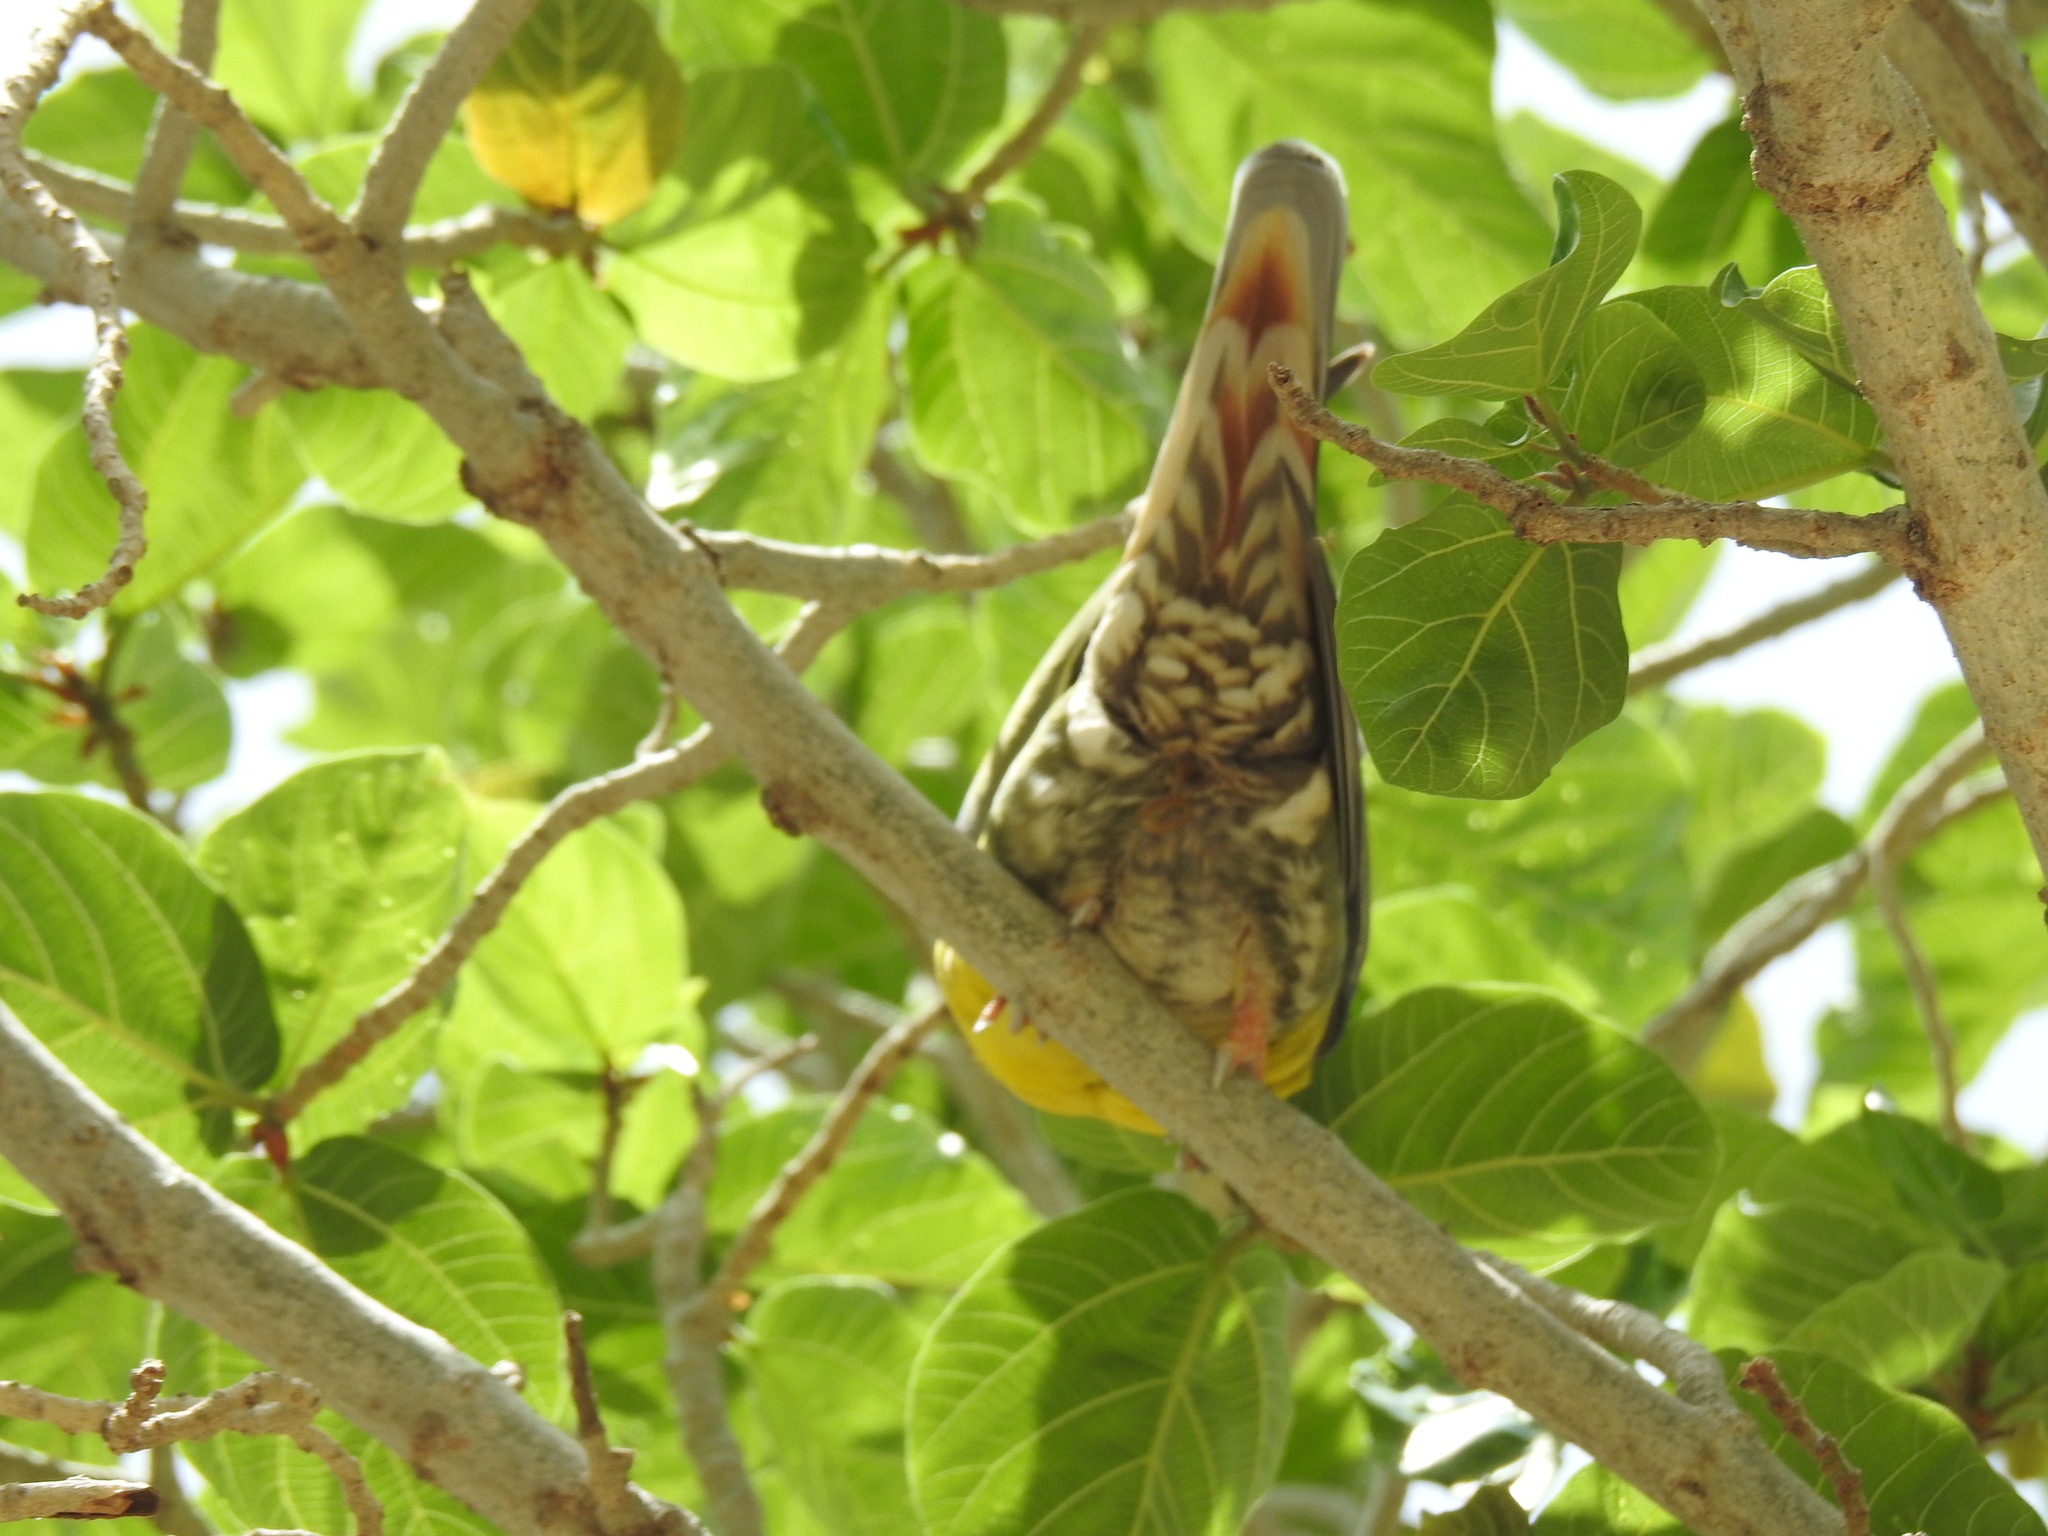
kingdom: Animalia
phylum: Chordata
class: Aves
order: Columbiformes
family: Columbidae
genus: Treron
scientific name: Treron waalia
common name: Bruce's green pigeon
